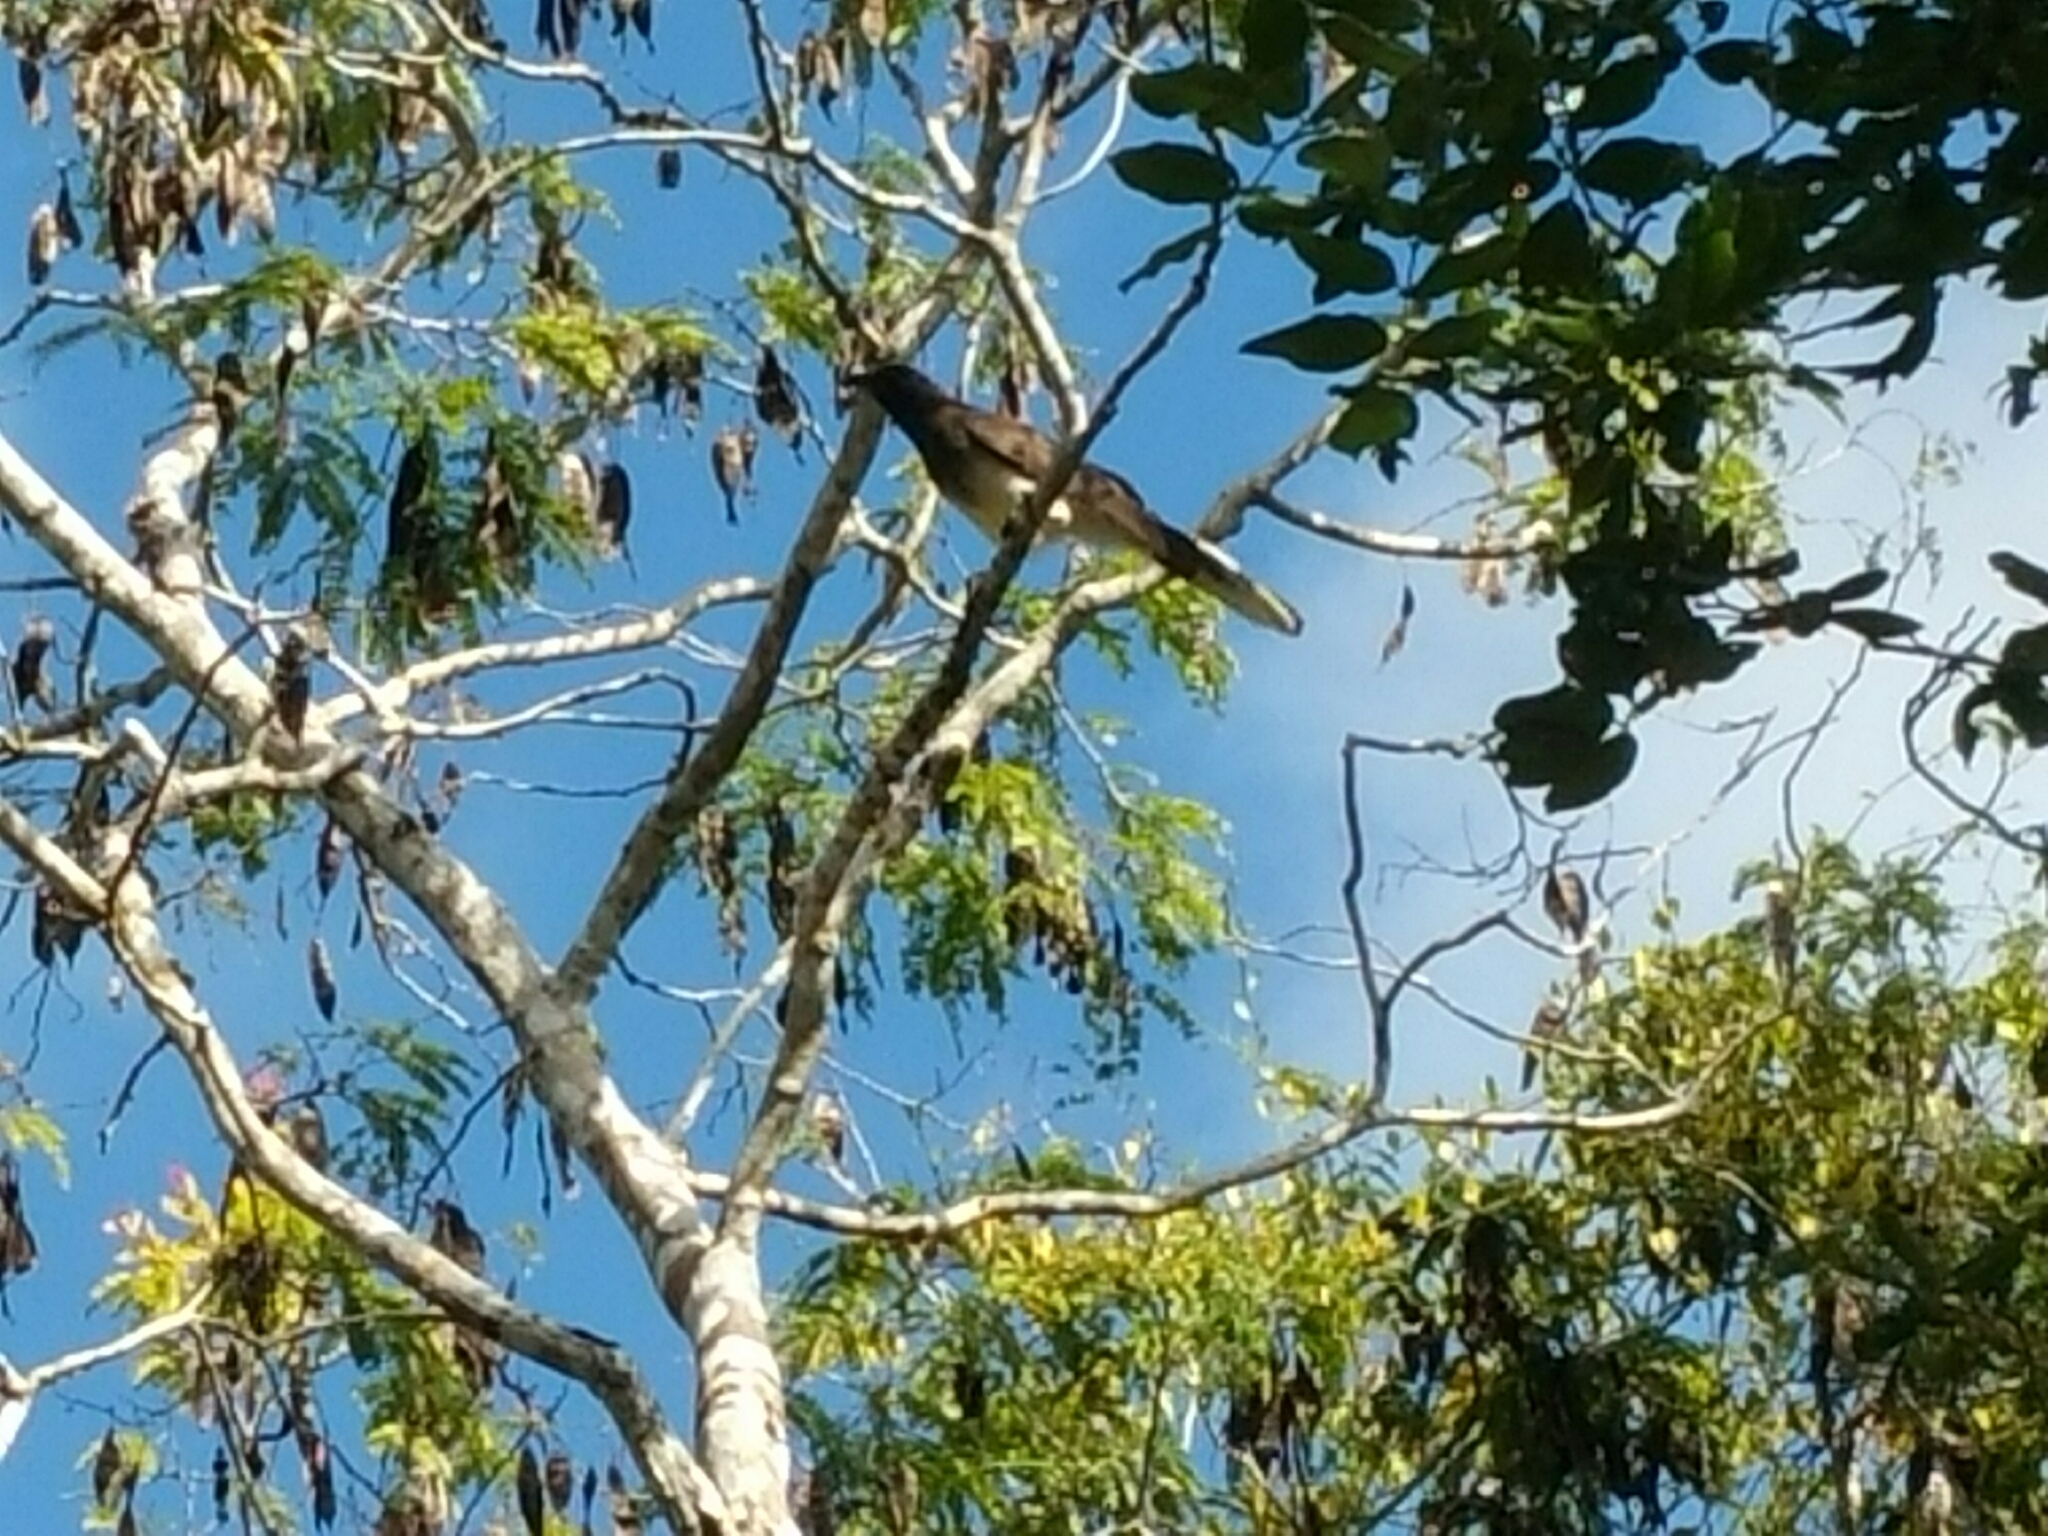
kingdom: Animalia
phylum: Chordata
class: Aves
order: Passeriformes
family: Corvidae
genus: Psilorhinus
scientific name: Psilorhinus morio
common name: Brown jay
